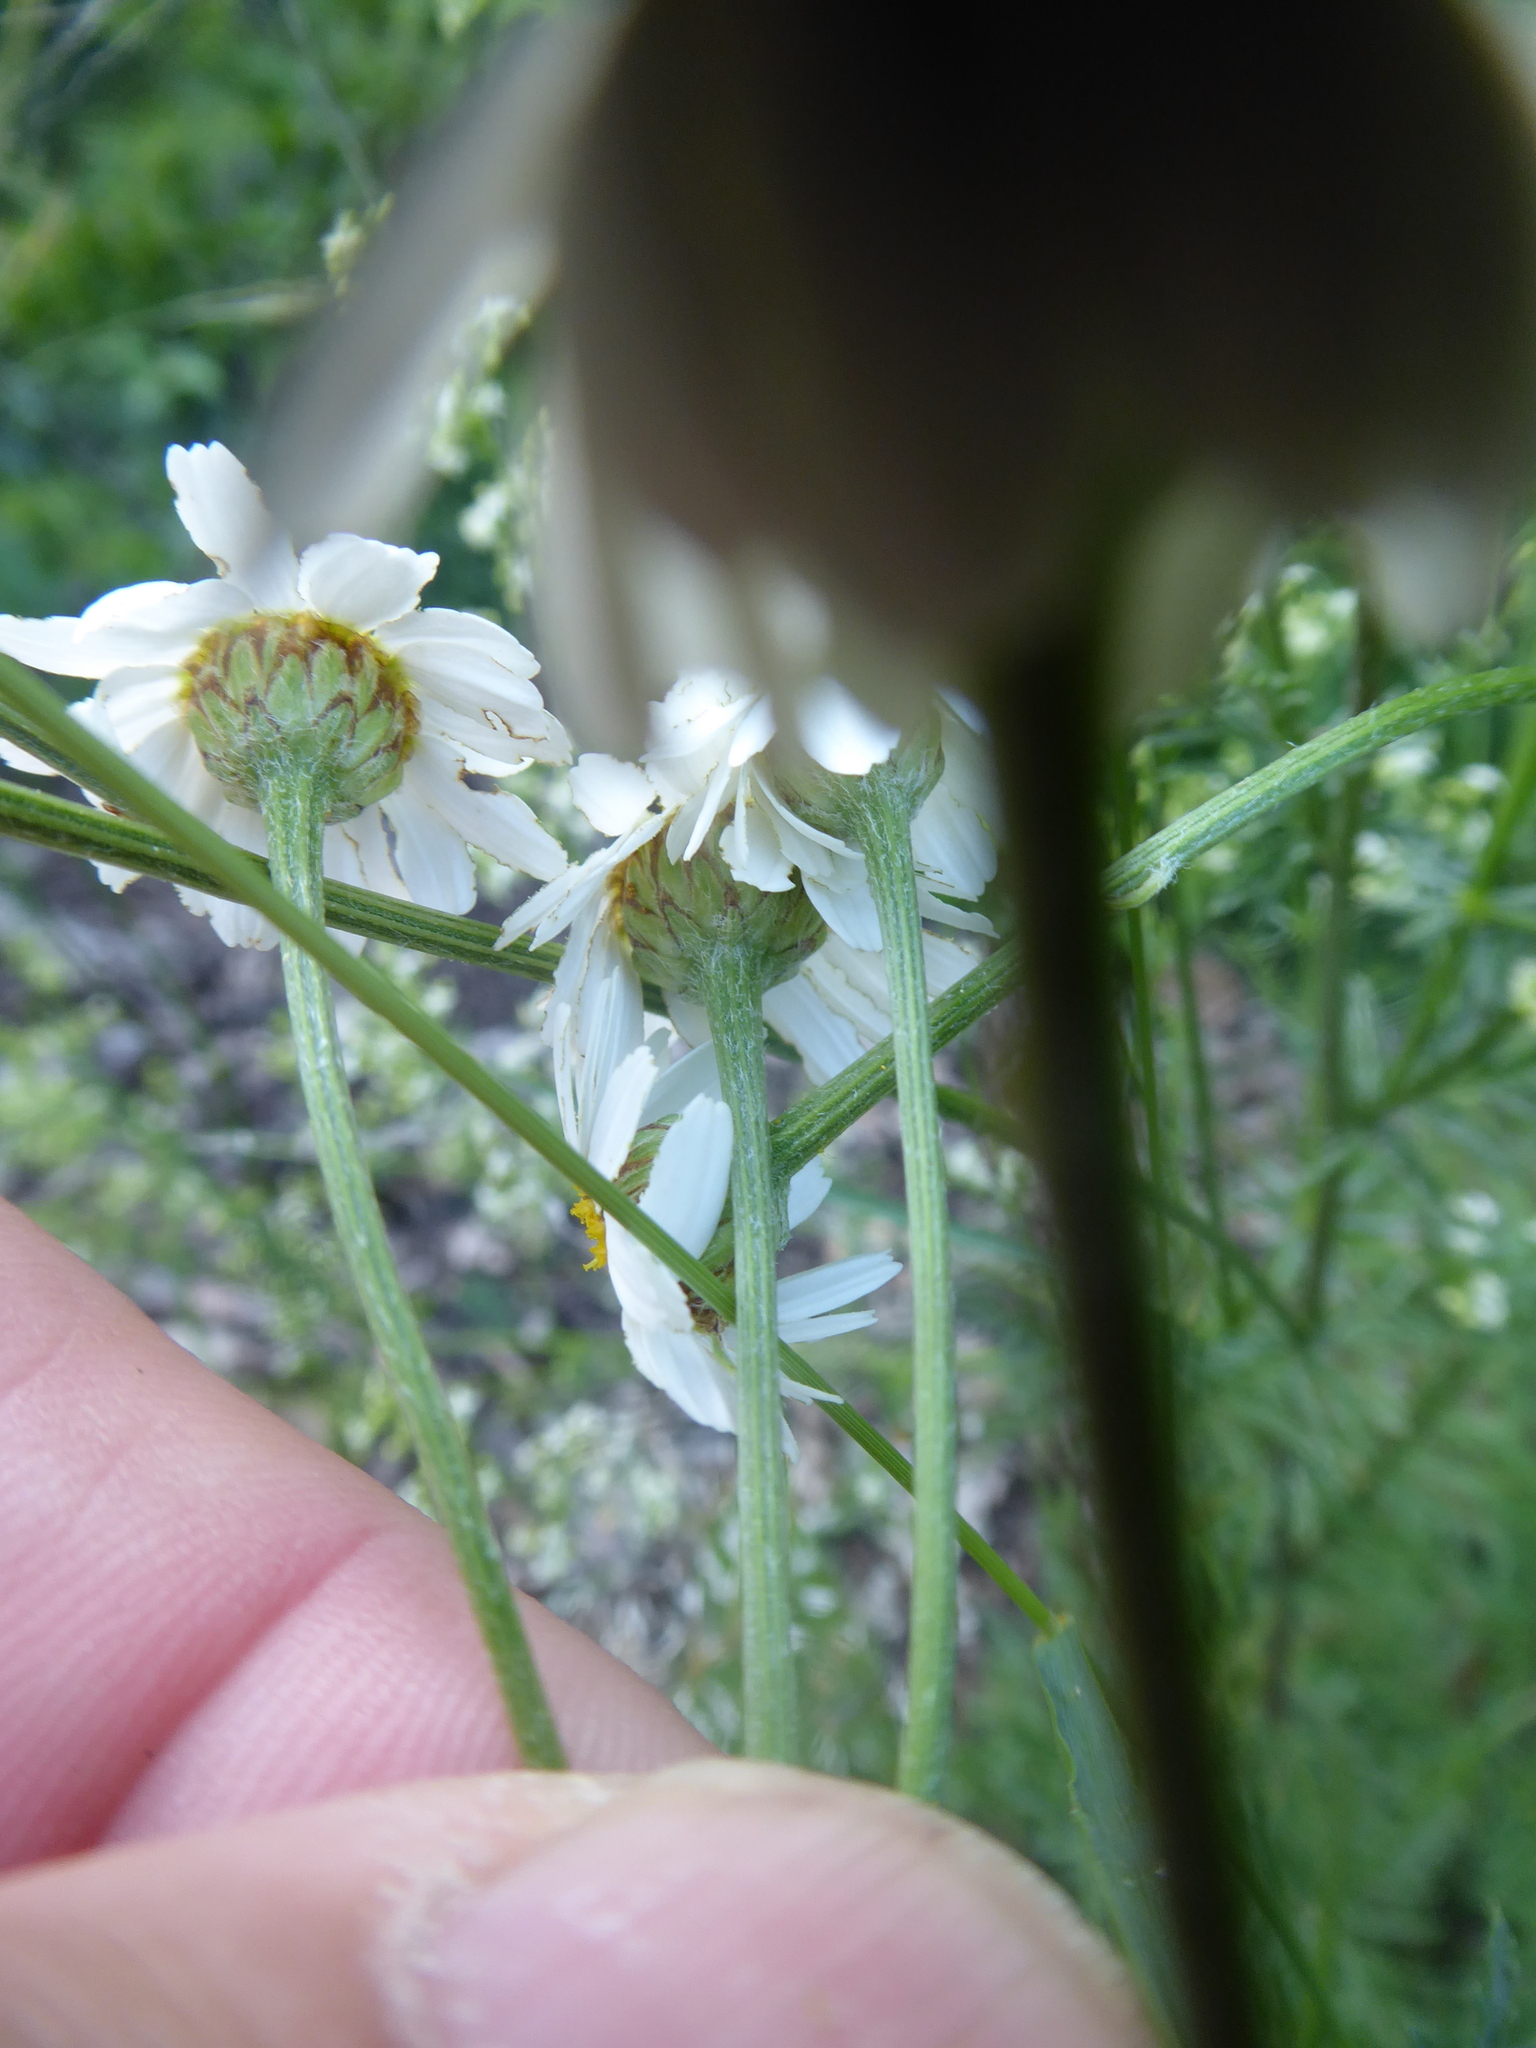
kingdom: Plantae
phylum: Tracheophyta
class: Magnoliopsida
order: Asterales
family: Asteraceae
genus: Tanacetum
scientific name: Tanacetum corymbosum
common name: Scentless feverfew
